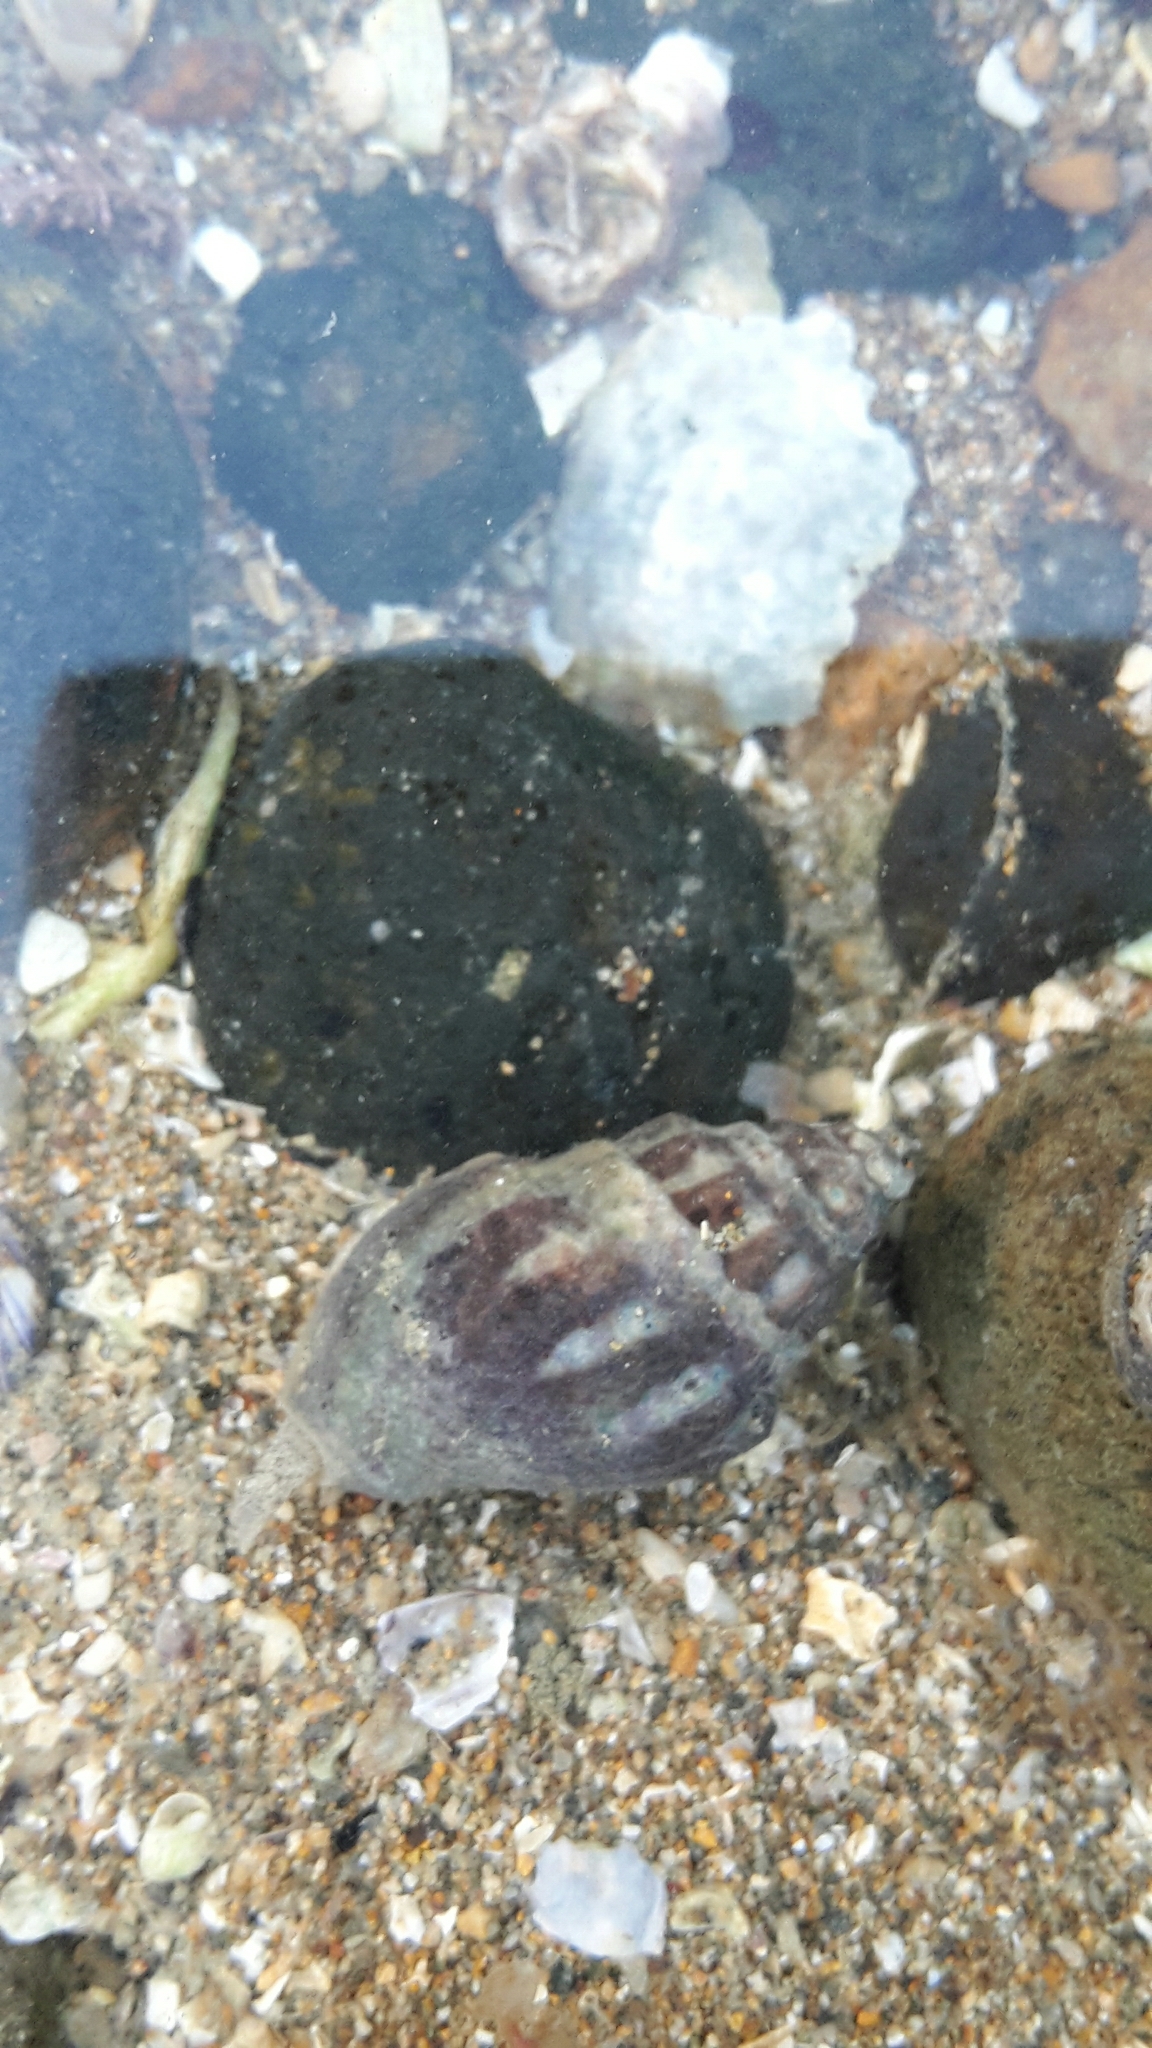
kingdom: Animalia
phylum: Mollusca
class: Gastropoda
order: Neogastropoda
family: Cominellidae
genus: Cominella
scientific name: Cominella glandiformis
